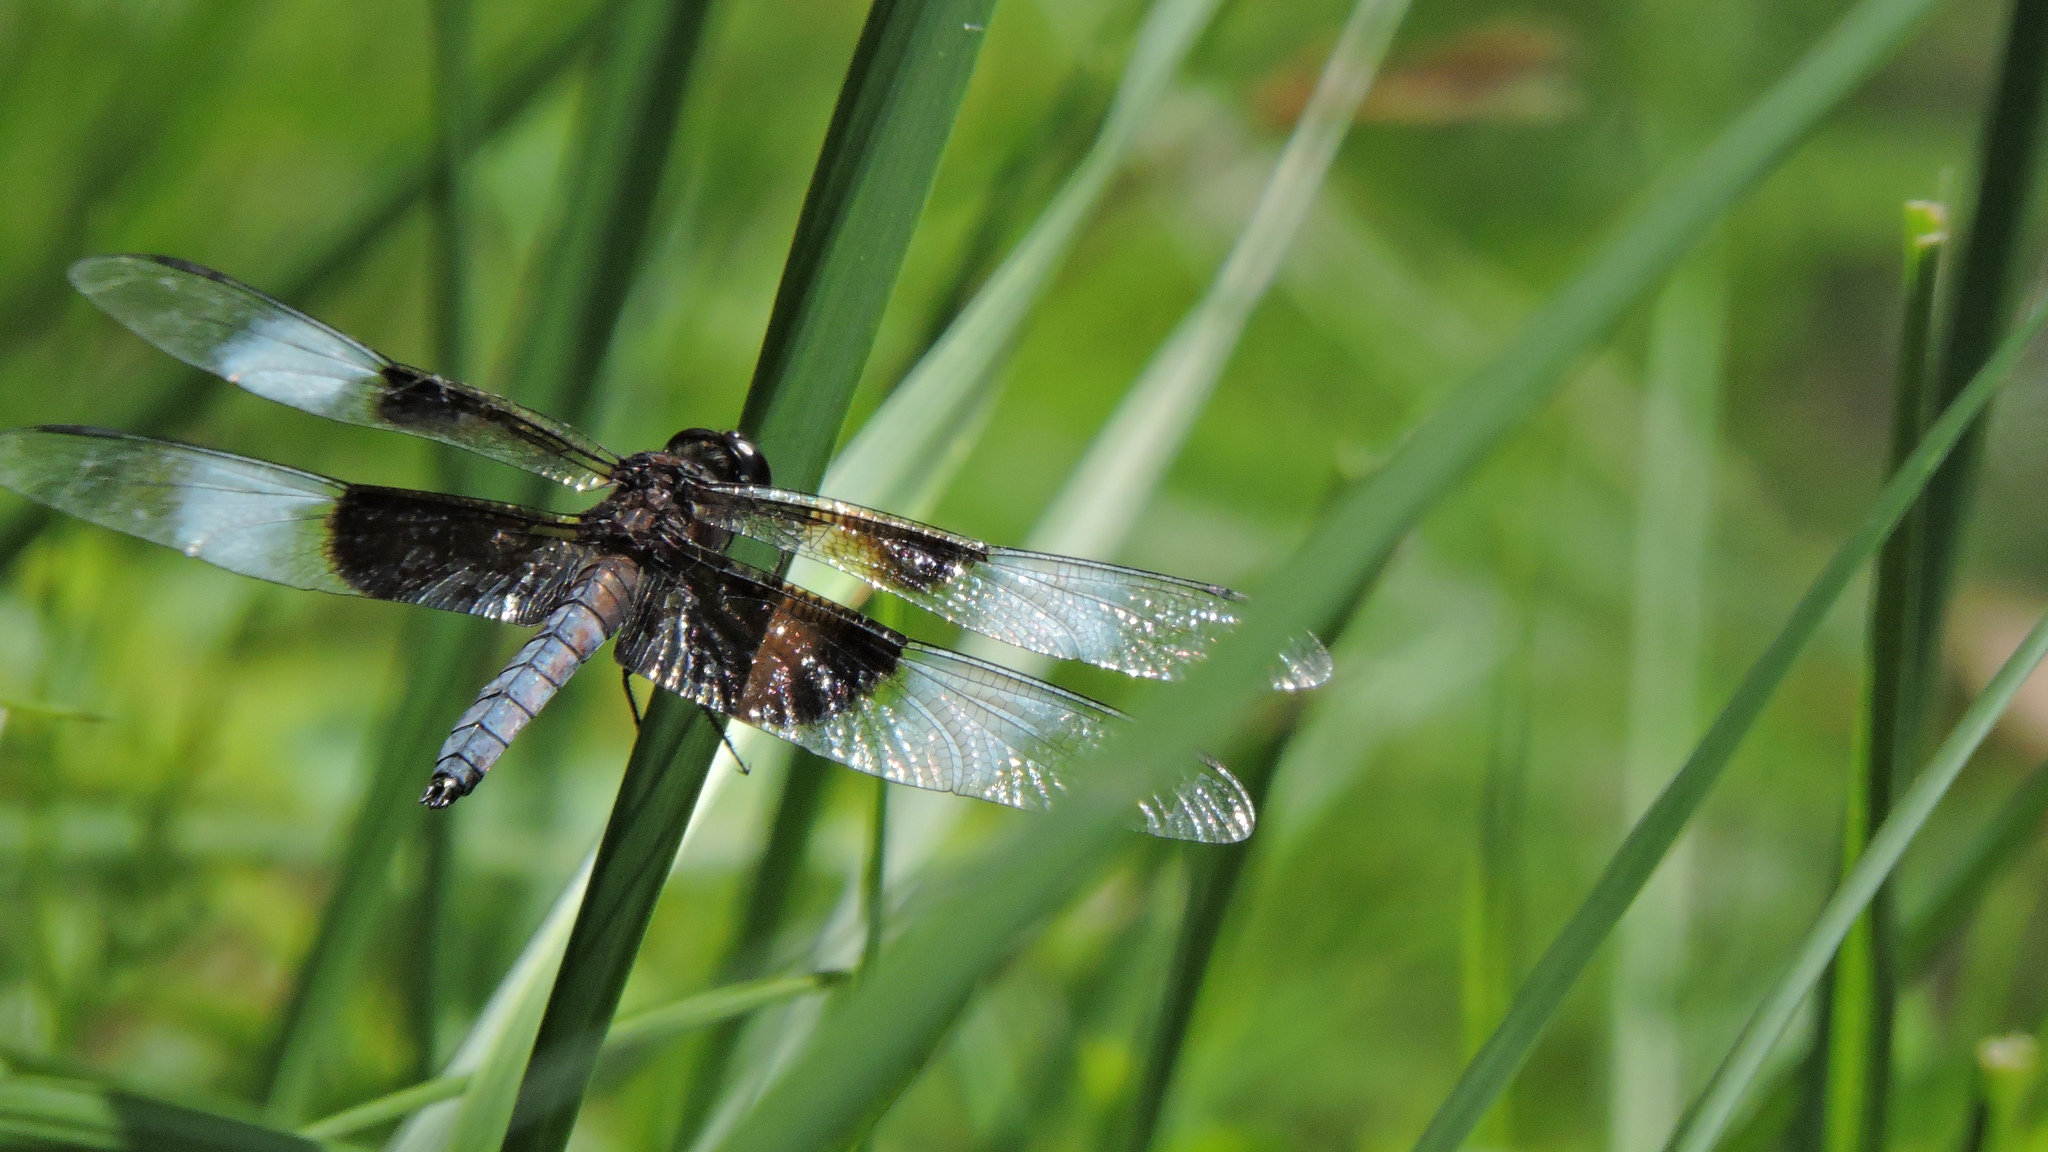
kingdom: Animalia
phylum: Arthropoda
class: Insecta
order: Odonata
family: Libellulidae
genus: Libellula
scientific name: Libellula luctuosa
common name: Widow skimmer
